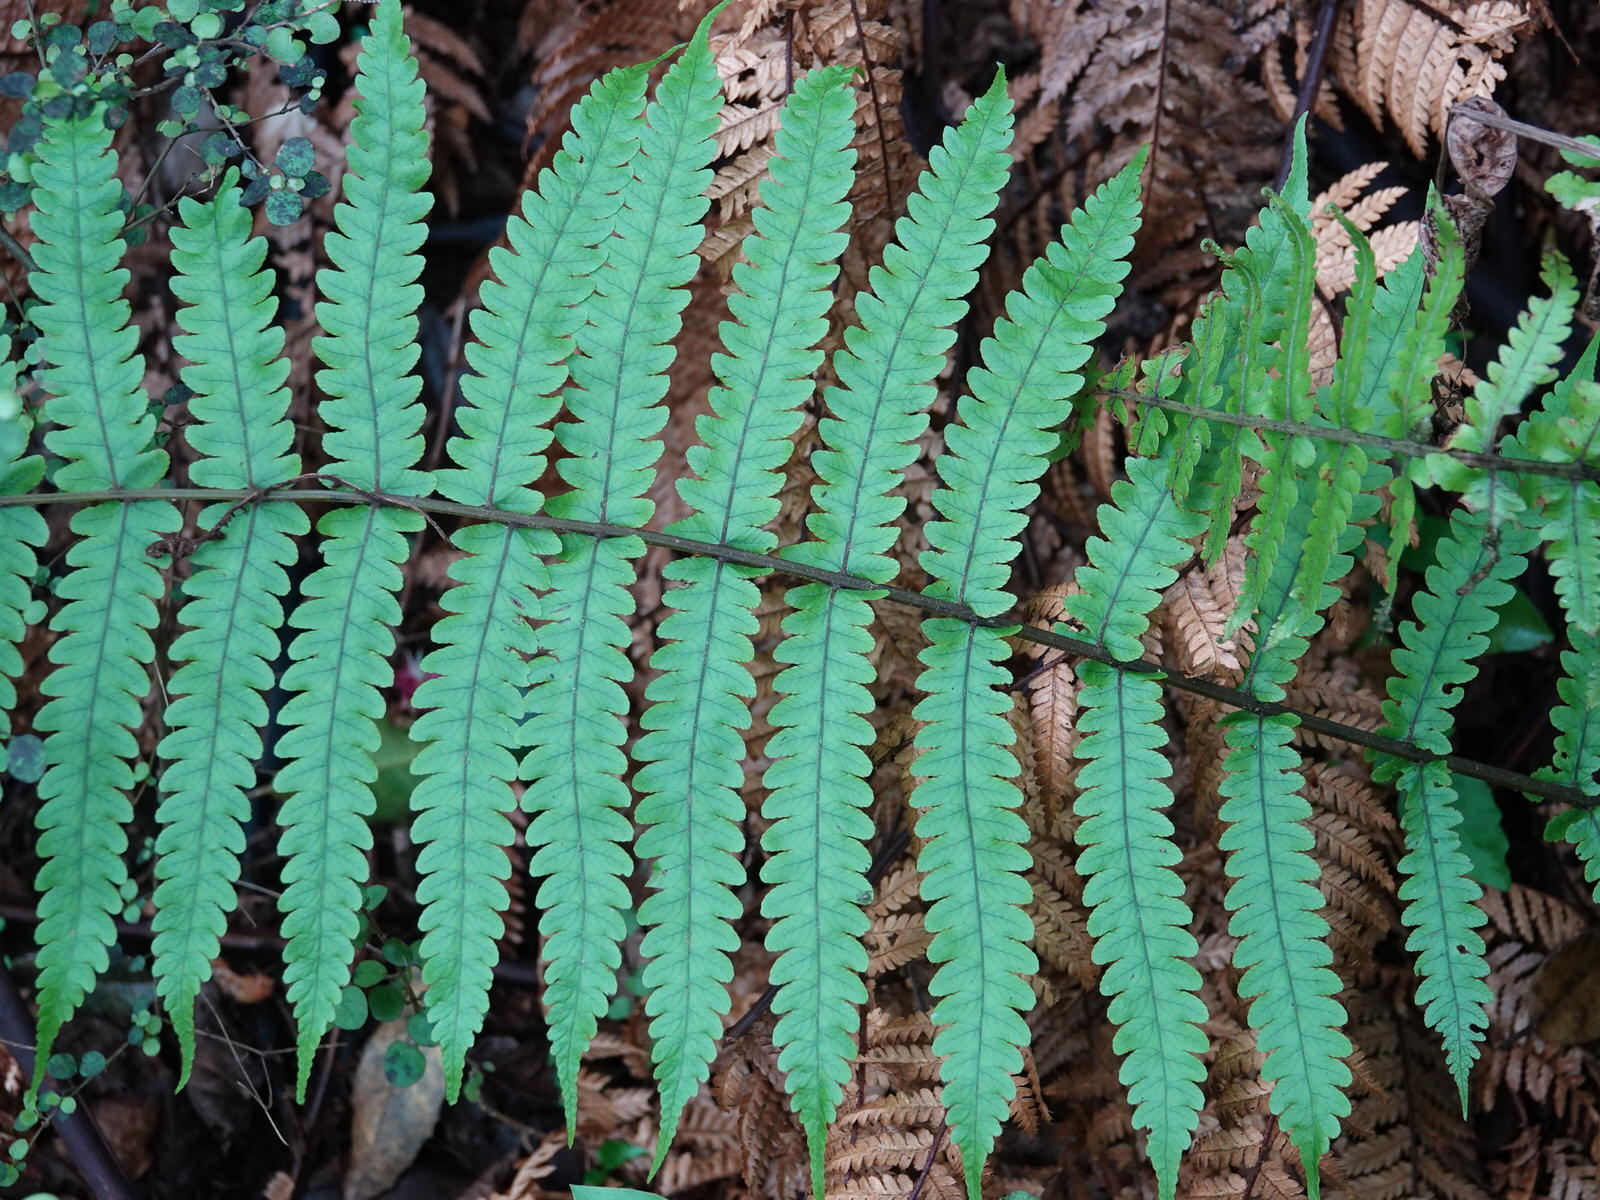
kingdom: Plantae
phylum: Tracheophyta
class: Polypodiopsida
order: Polypodiales
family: Thelypteridaceae
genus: Pakau
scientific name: Pakau pennigera
